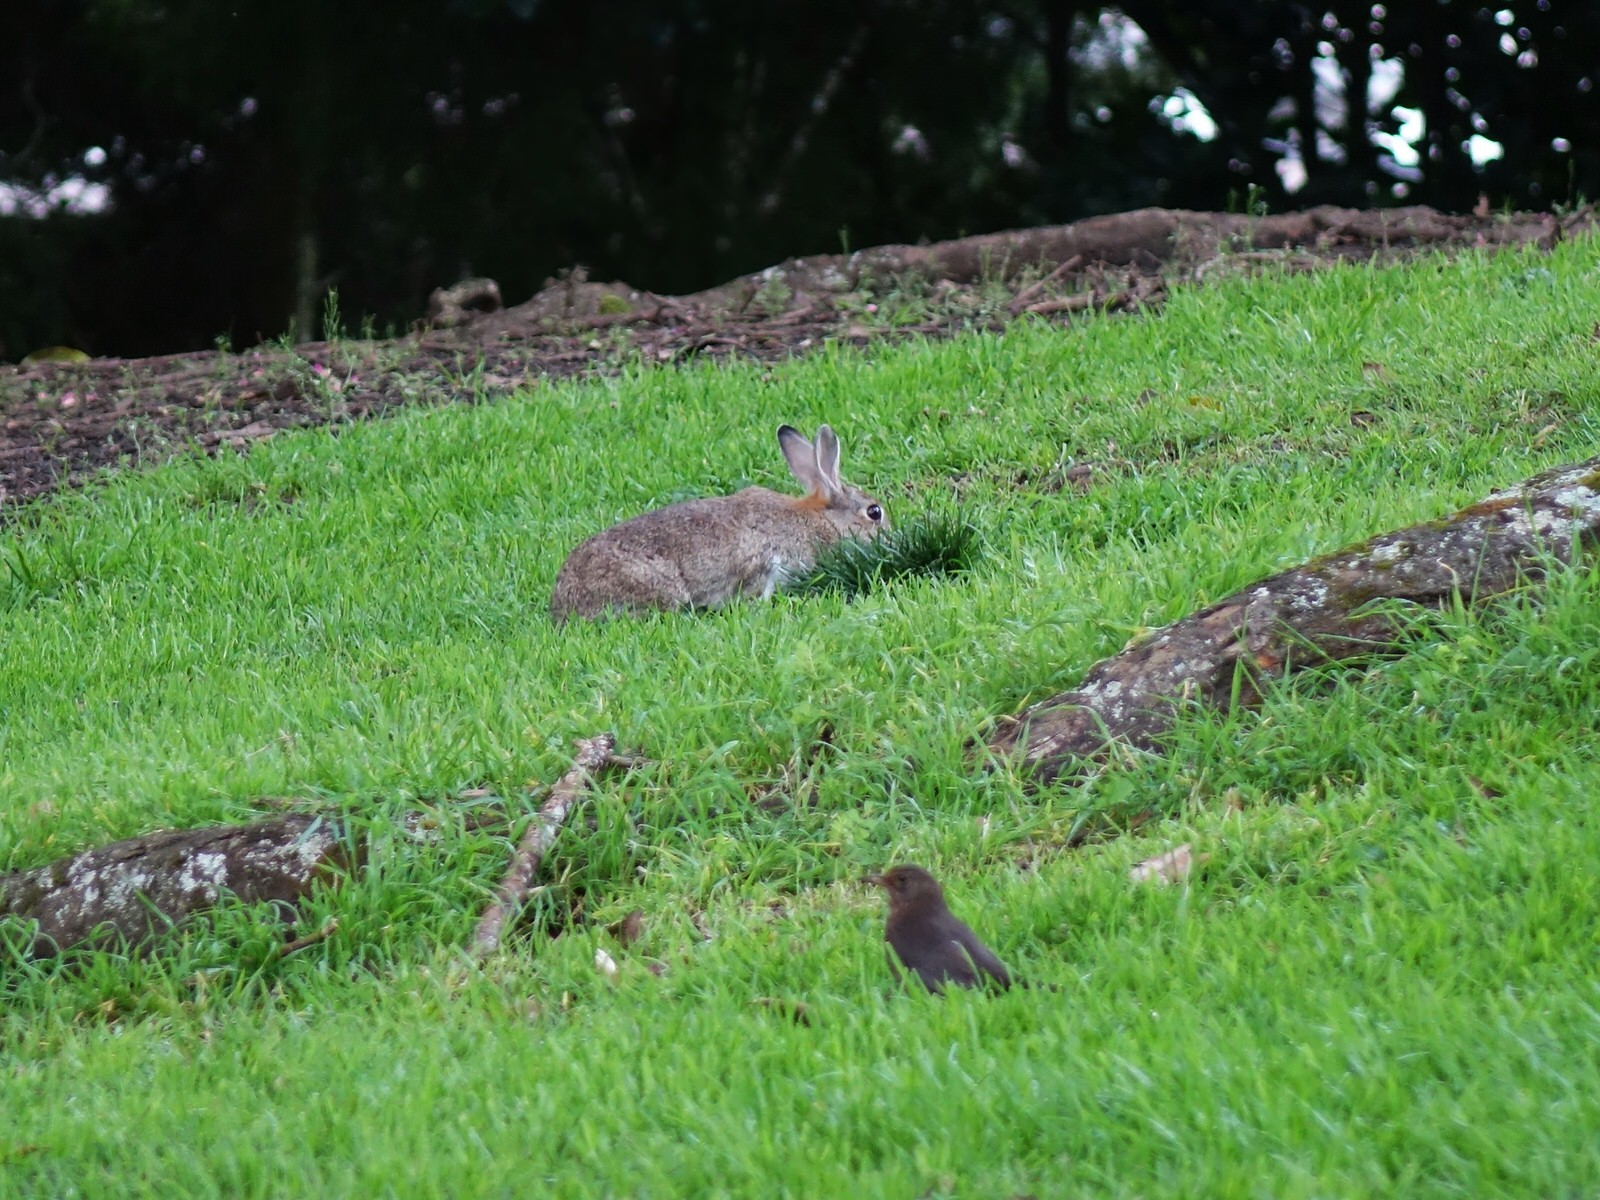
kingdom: Animalia
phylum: Chordata
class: Mammalia
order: Lagomorpha
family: Leporidae
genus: Oryctolagus
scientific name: Oryctolagus cuniculus
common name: European rabbit
